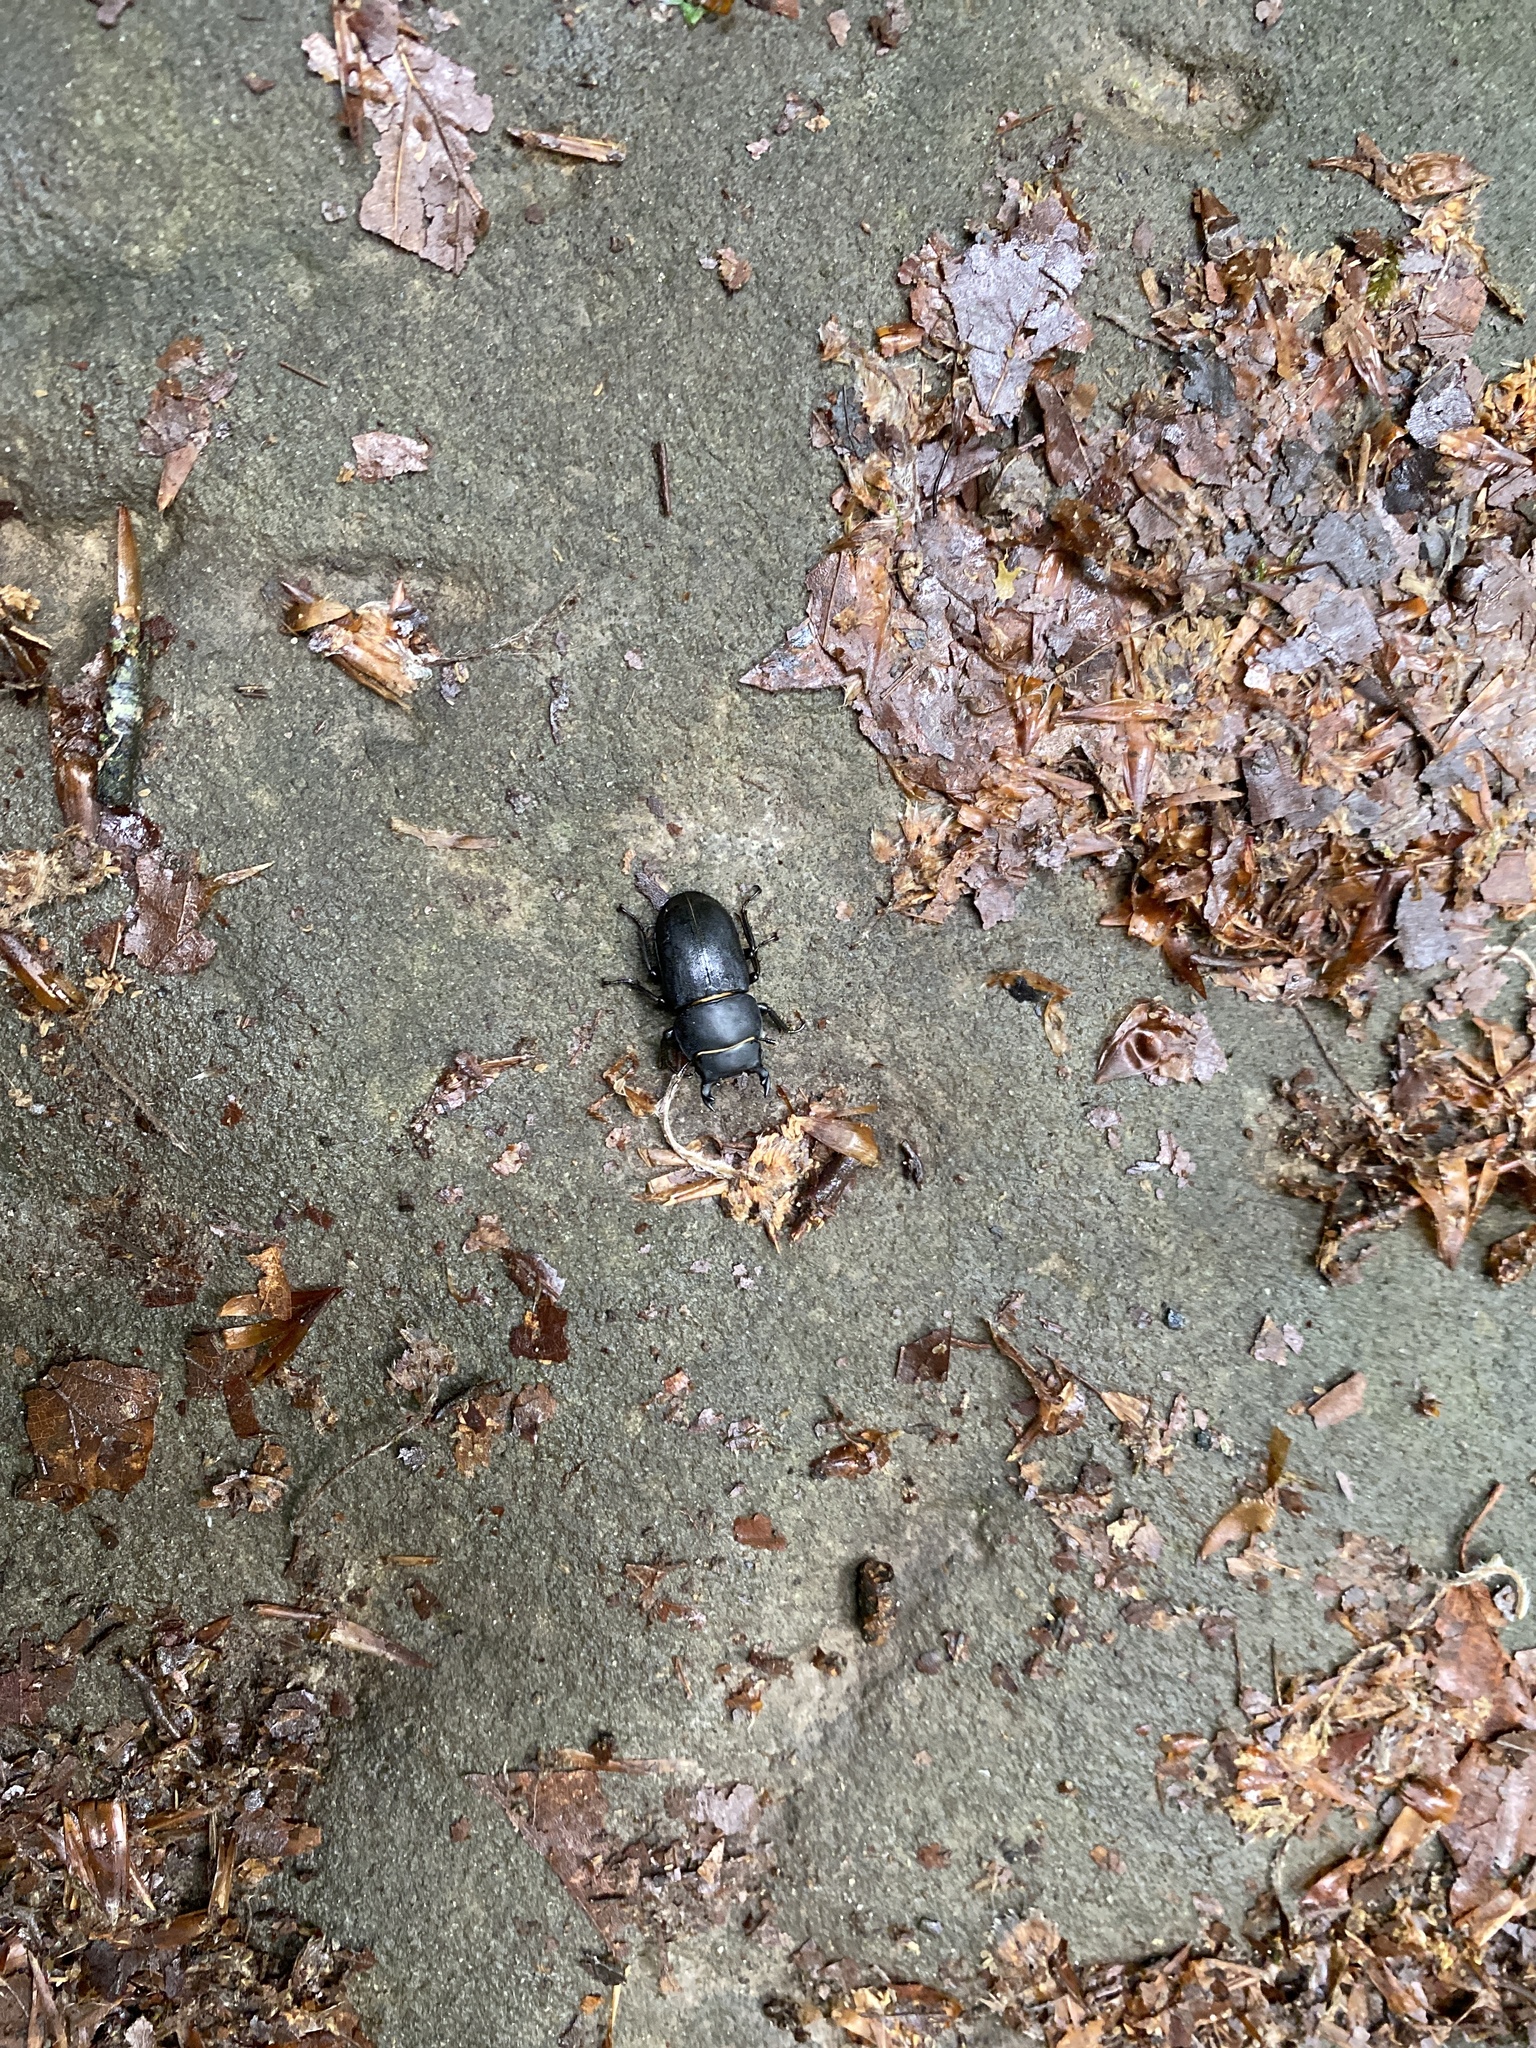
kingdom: Animalia
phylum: Arthropoda
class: Insecta
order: Coleoptera
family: Lucanidae
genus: Dorcus
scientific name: Dorcus parallelipipedus
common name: Lesser stag beetle
